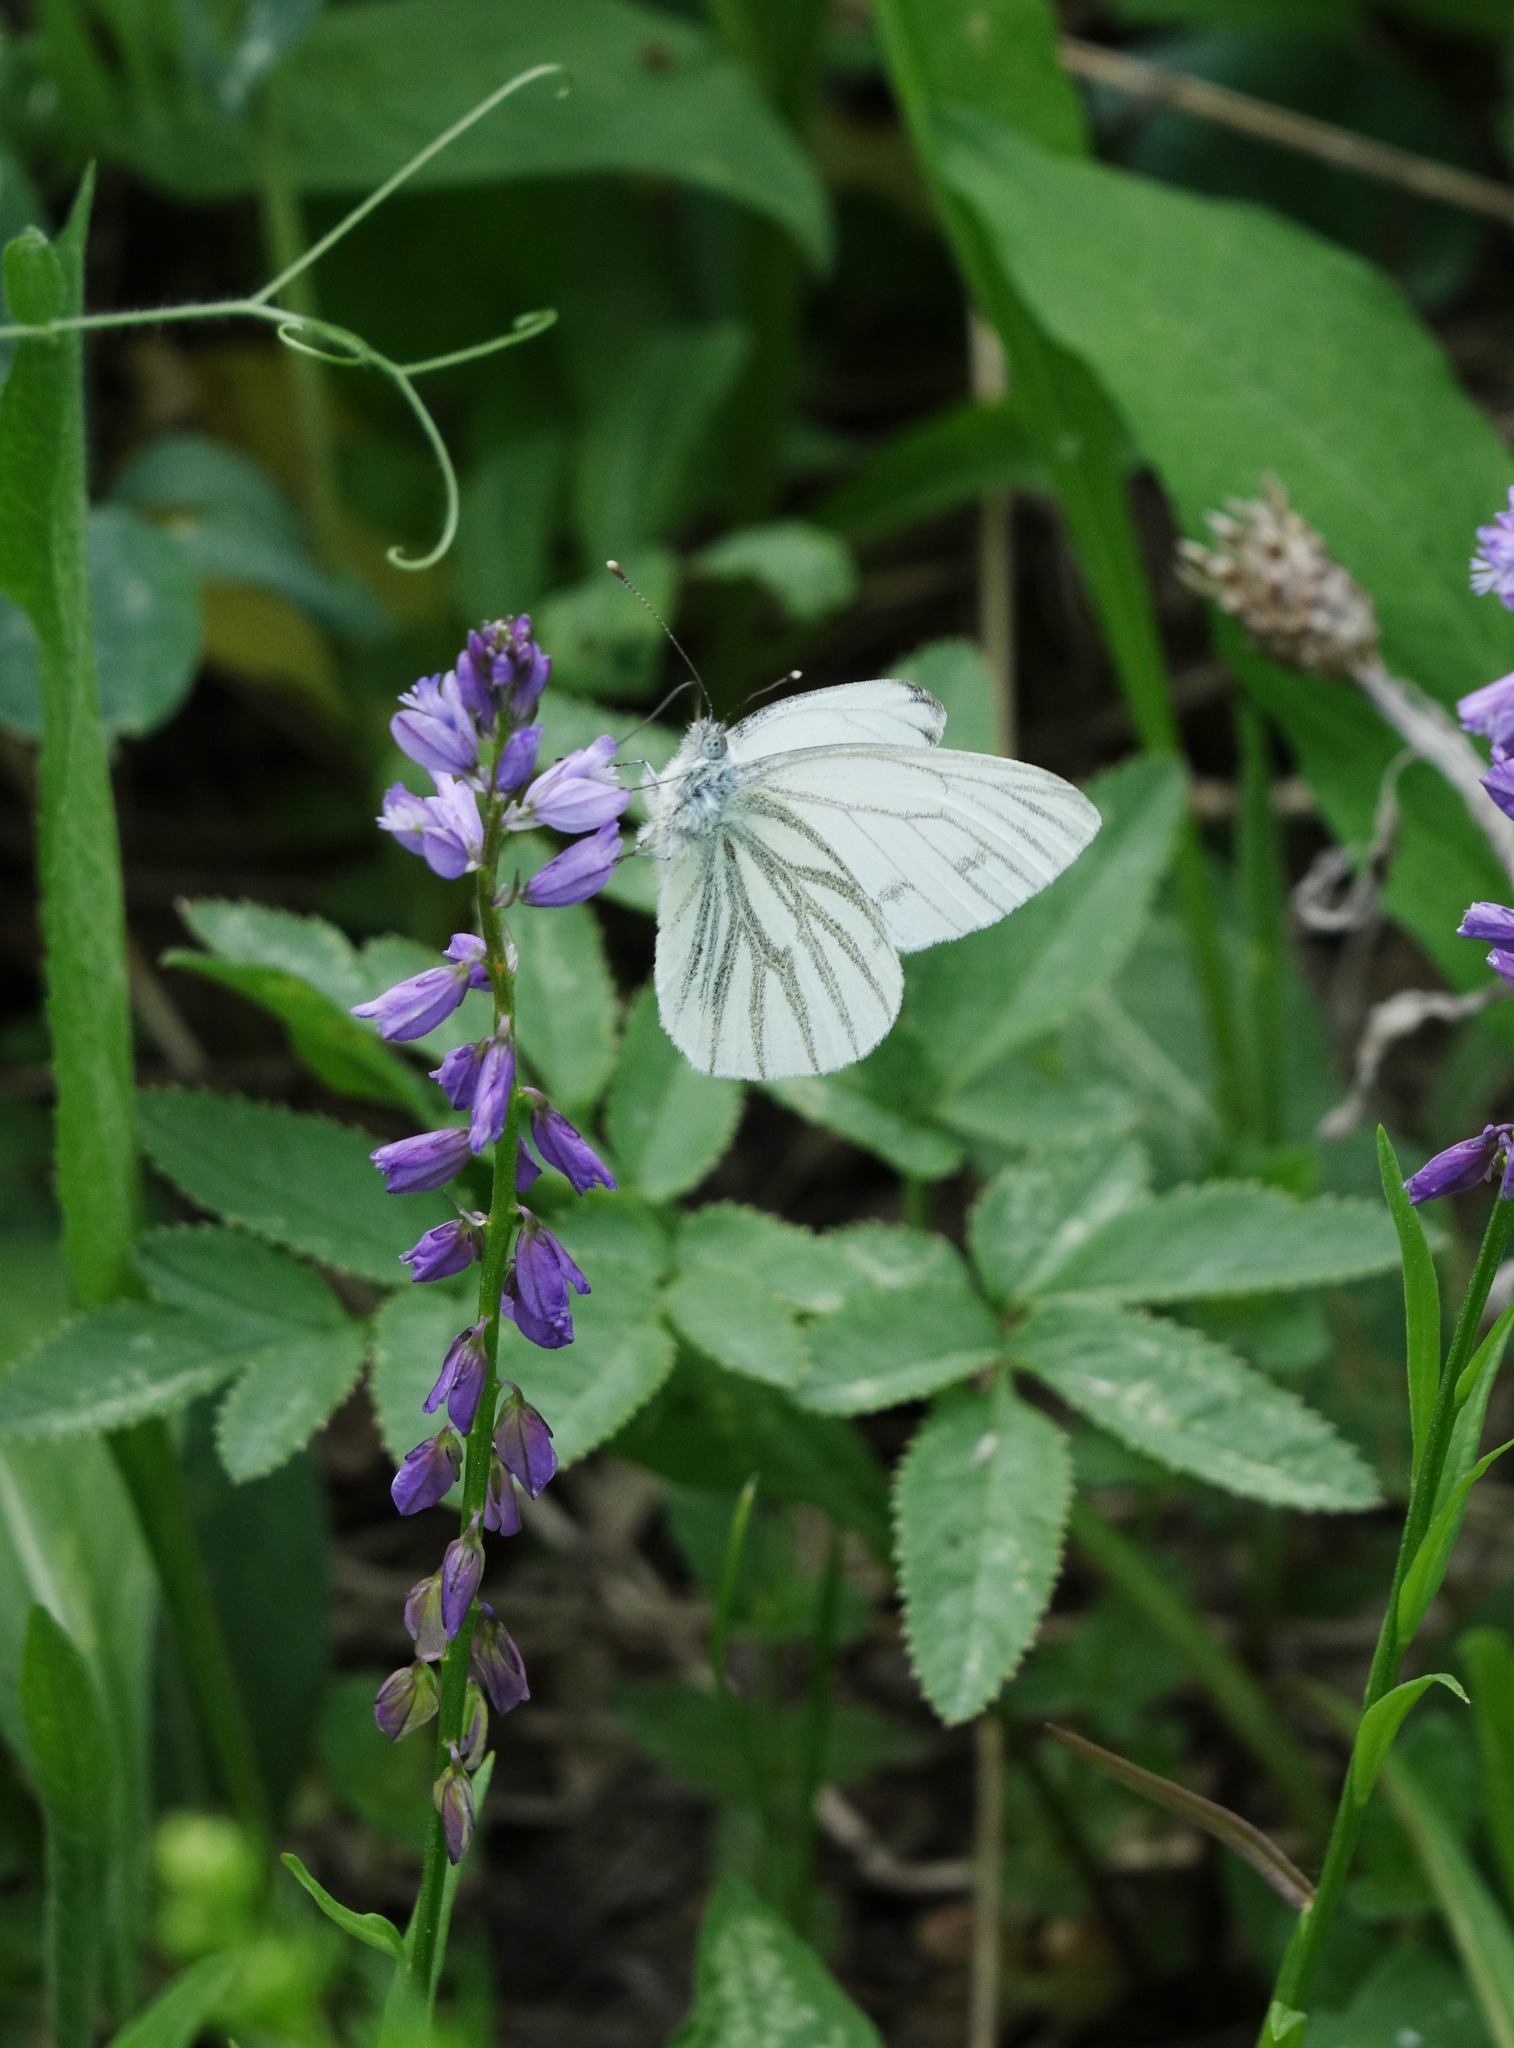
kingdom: Animalia
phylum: Arthropoda
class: Insecta
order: Lepidoptera
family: Pieridae
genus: Pieris
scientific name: Pieris napi
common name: Green-veined white
